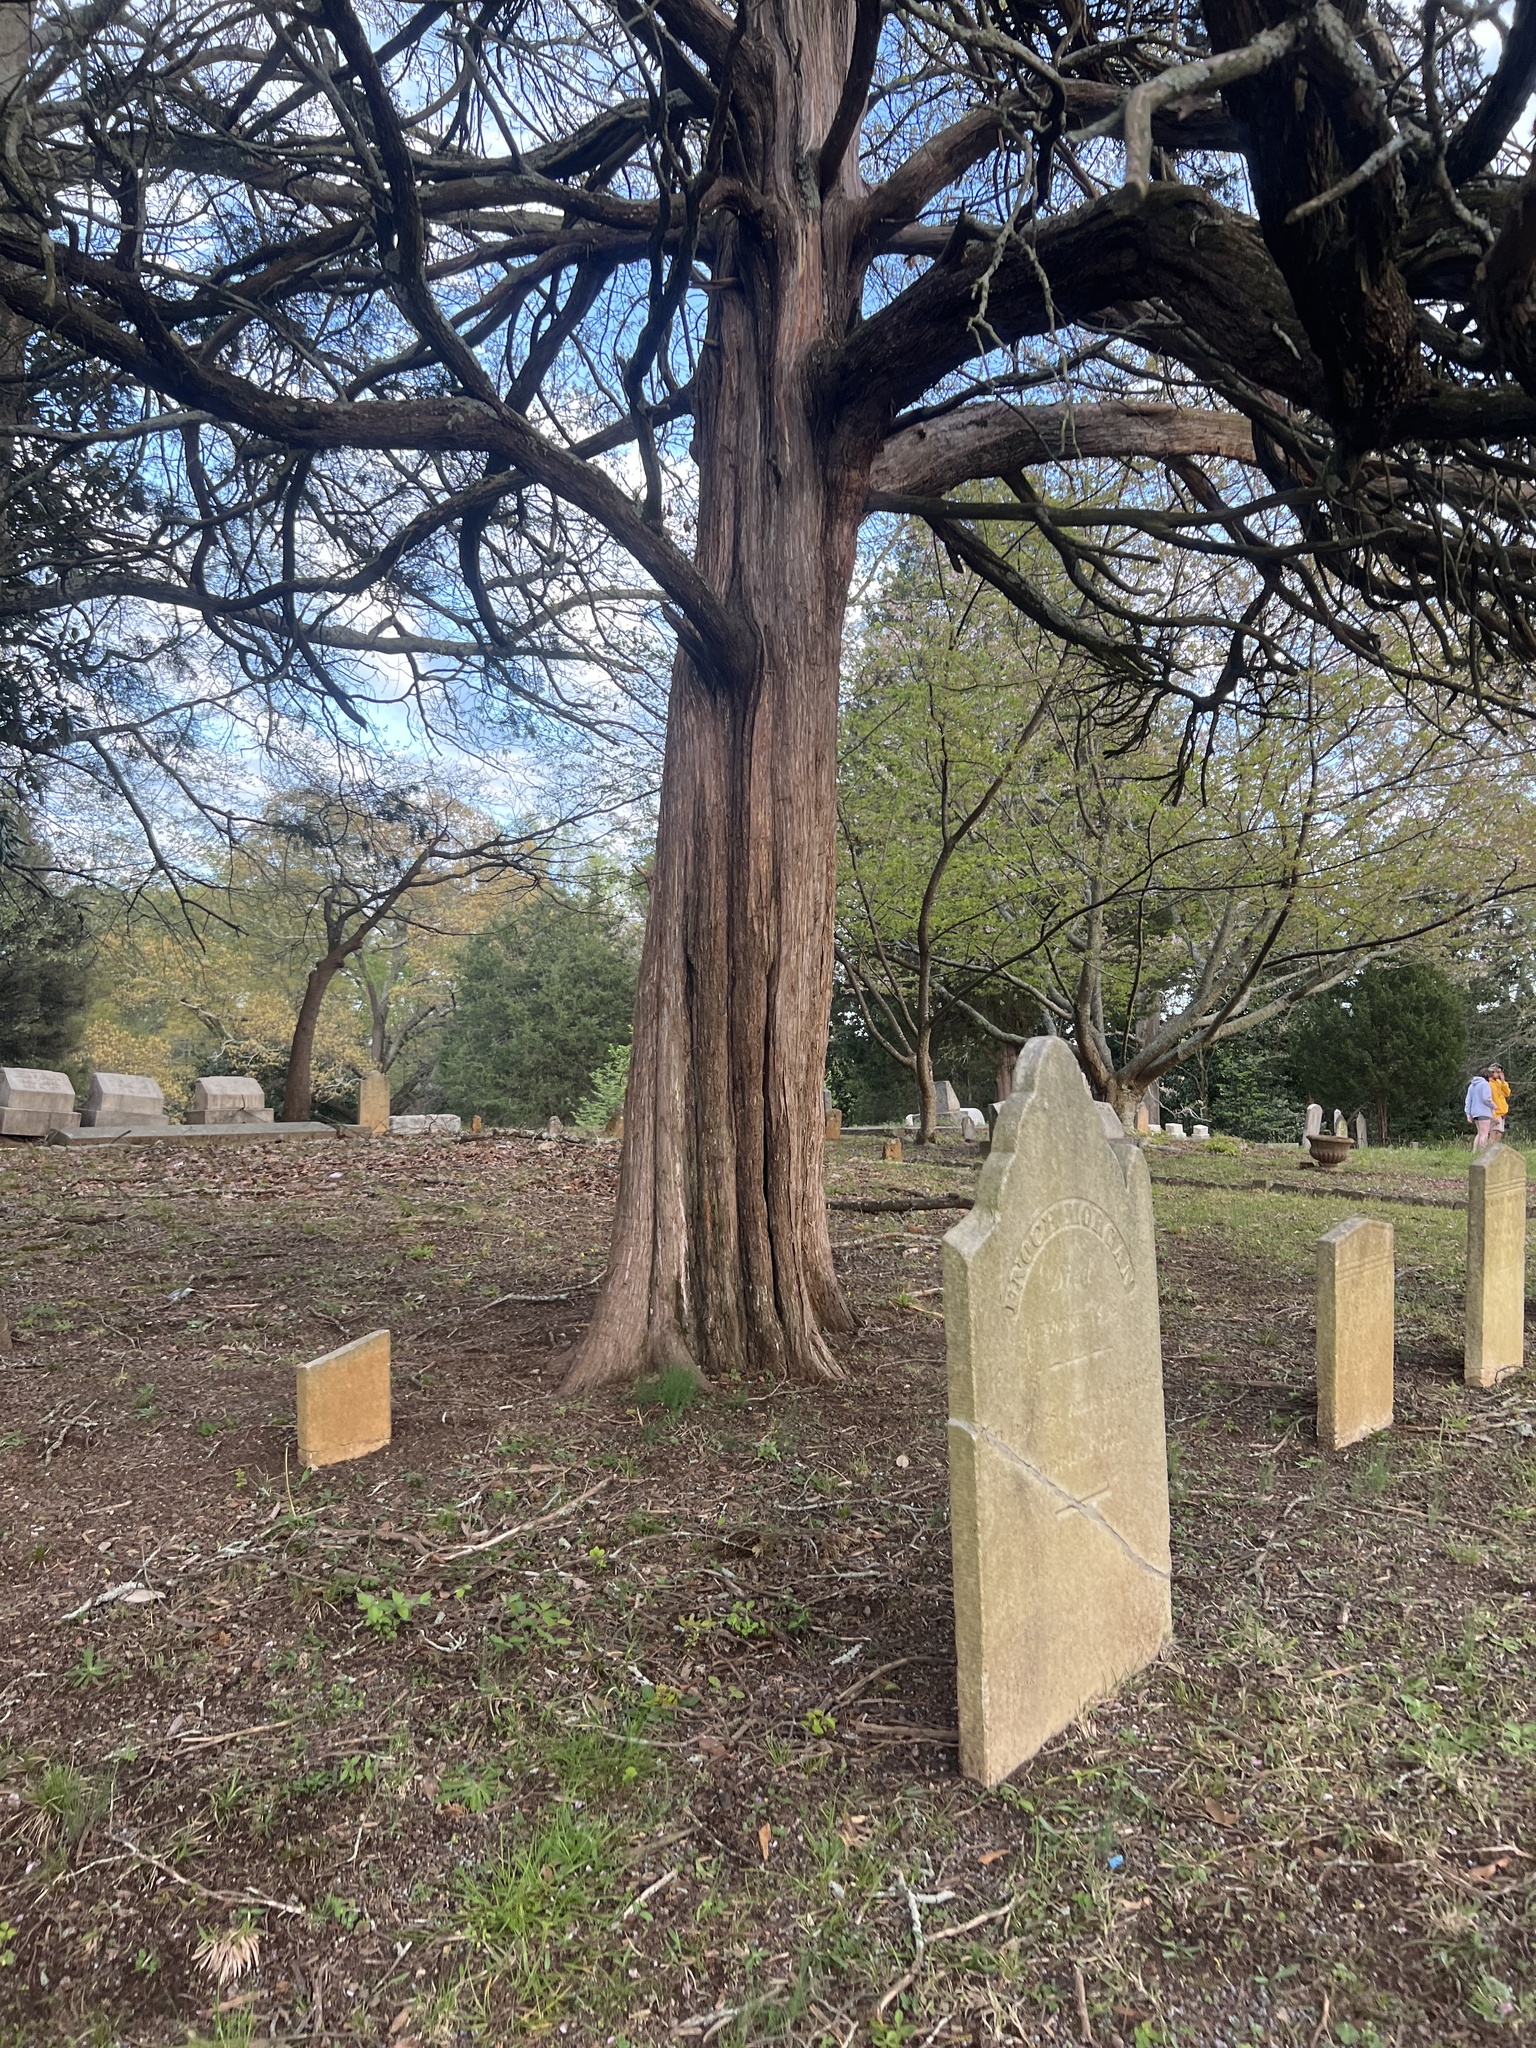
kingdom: Plantae
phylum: Tracheophyta
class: Pinopsida
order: Pinales
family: Cupressaceae
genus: Juniperus
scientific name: Juniperus virginiana
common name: Red juniper
